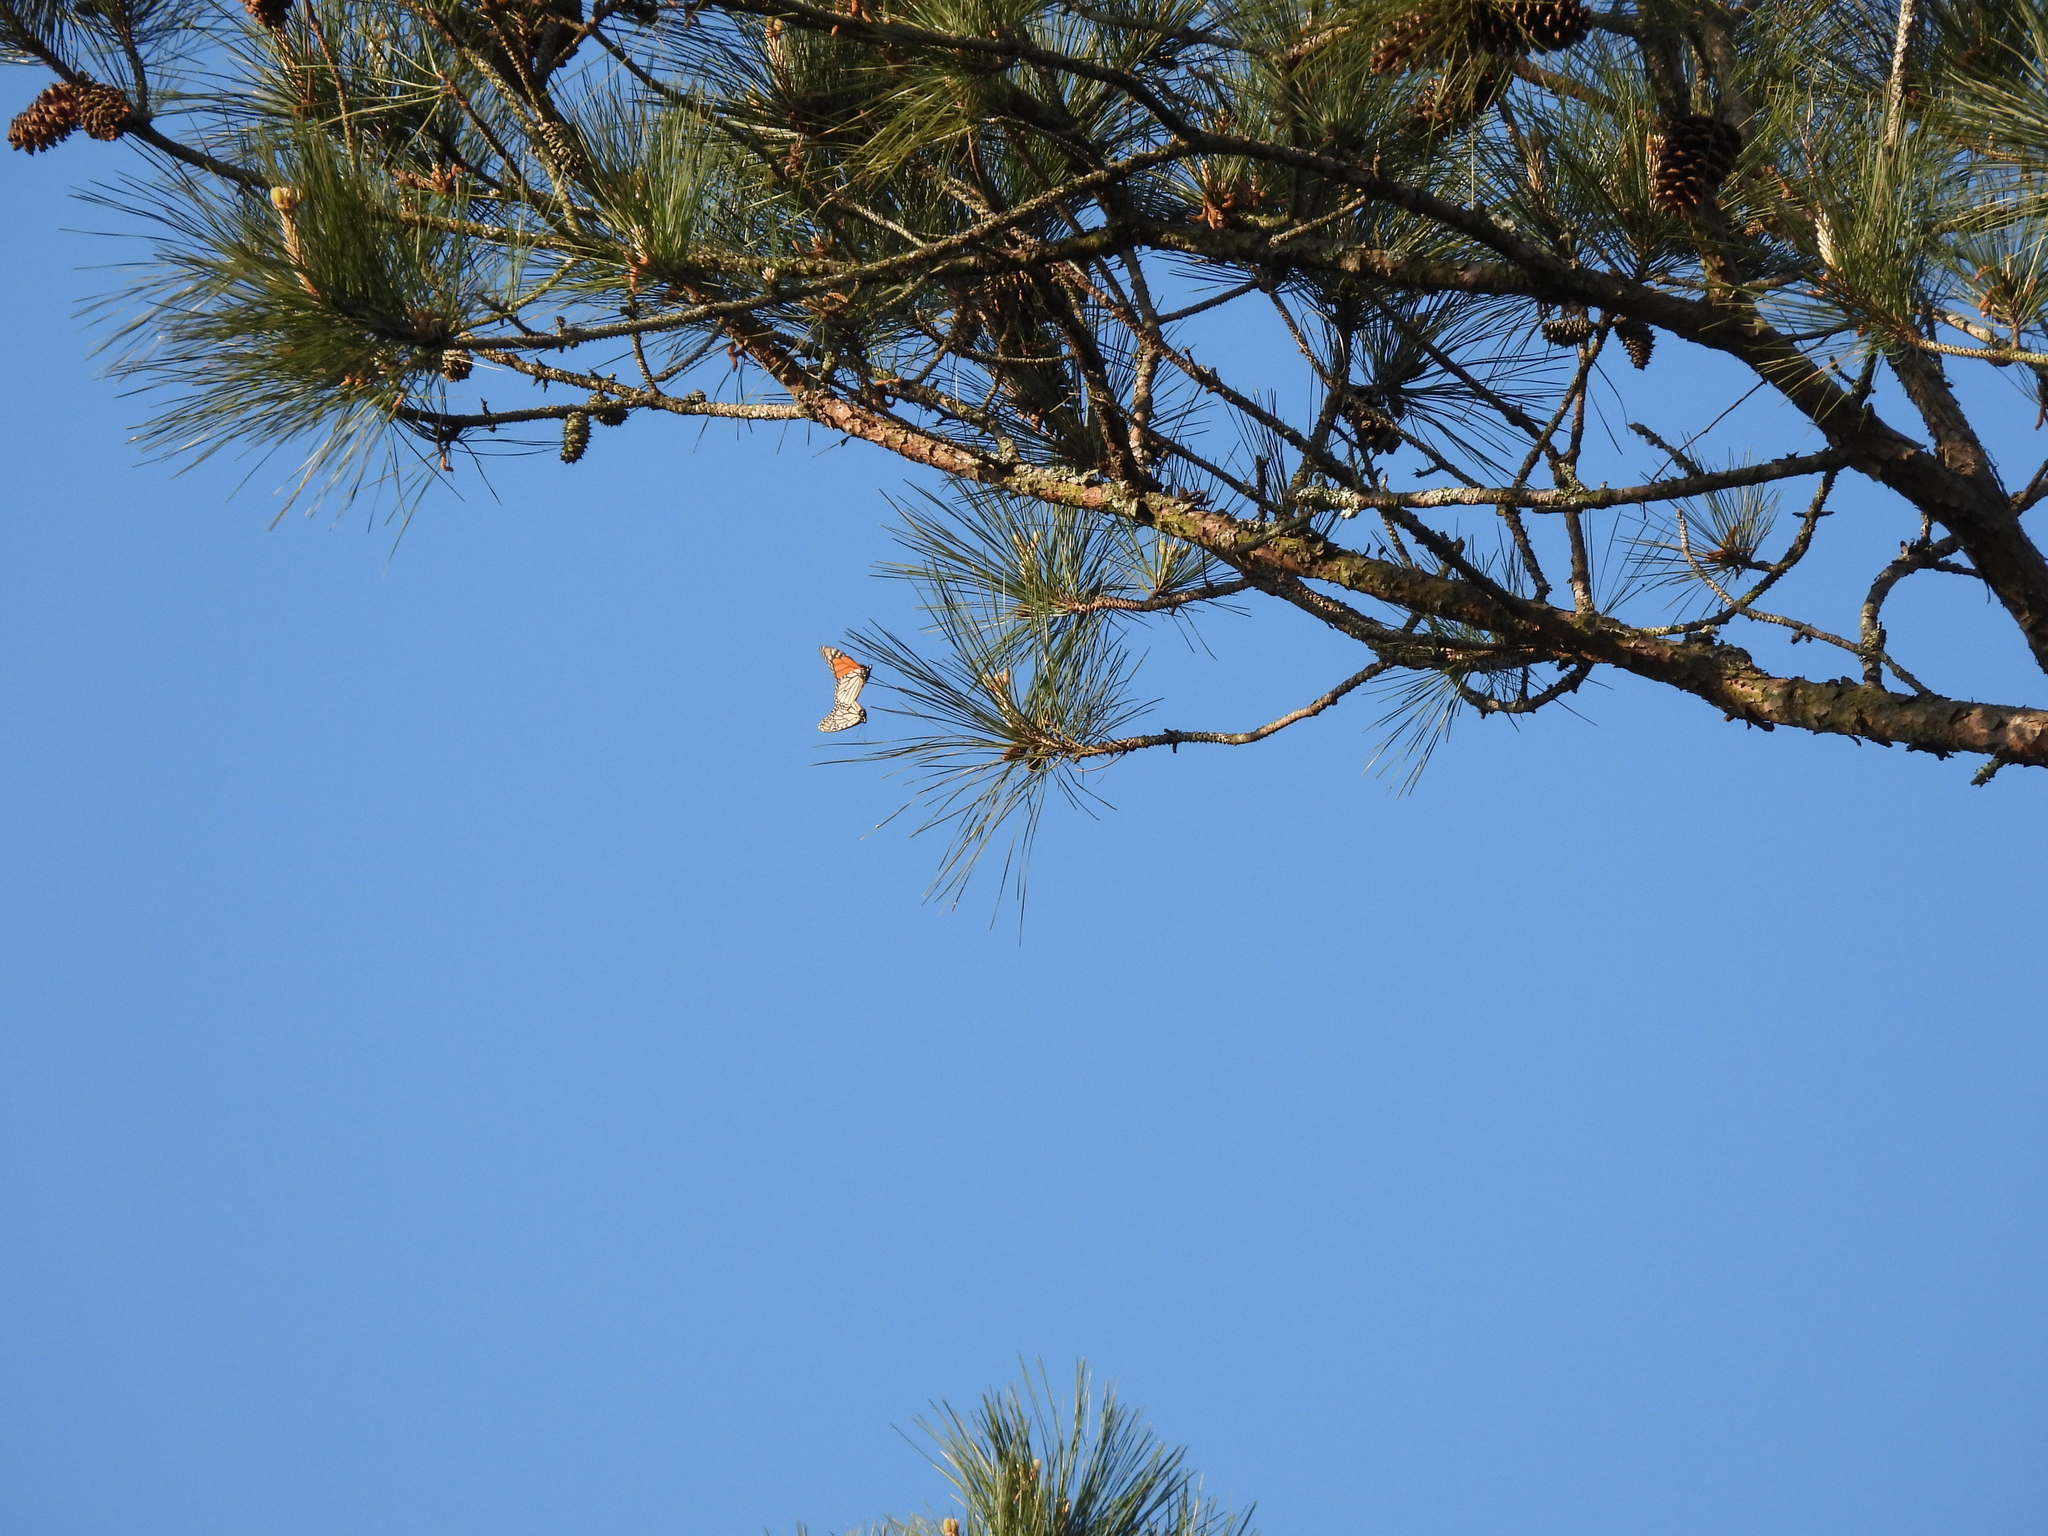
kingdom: Animalia
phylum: Arthropoda
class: Insecta
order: Lepidoptera
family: Nymphalidae
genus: Danaus
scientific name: Danaus plexippus
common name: Monarch
